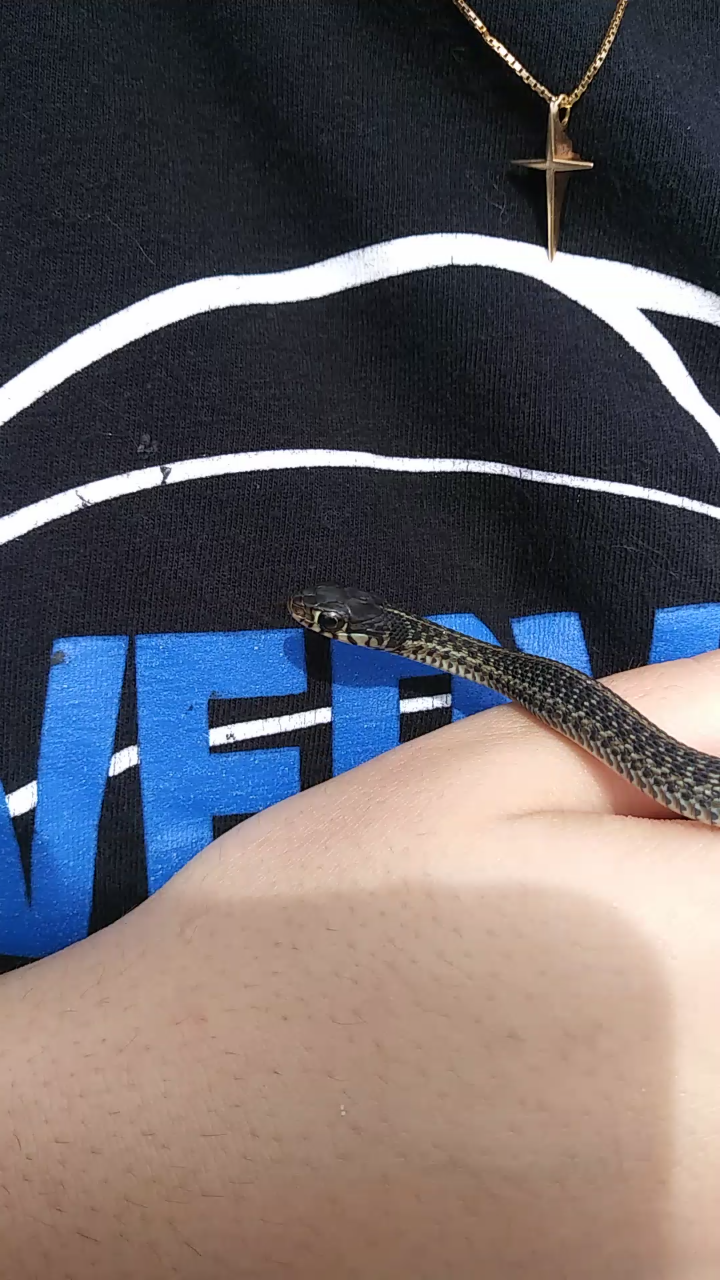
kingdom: Animalia
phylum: Chordata
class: Squamata
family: Colubridae
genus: Thamnophis
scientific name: Thamnophis sirtalis
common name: Common garter snake
